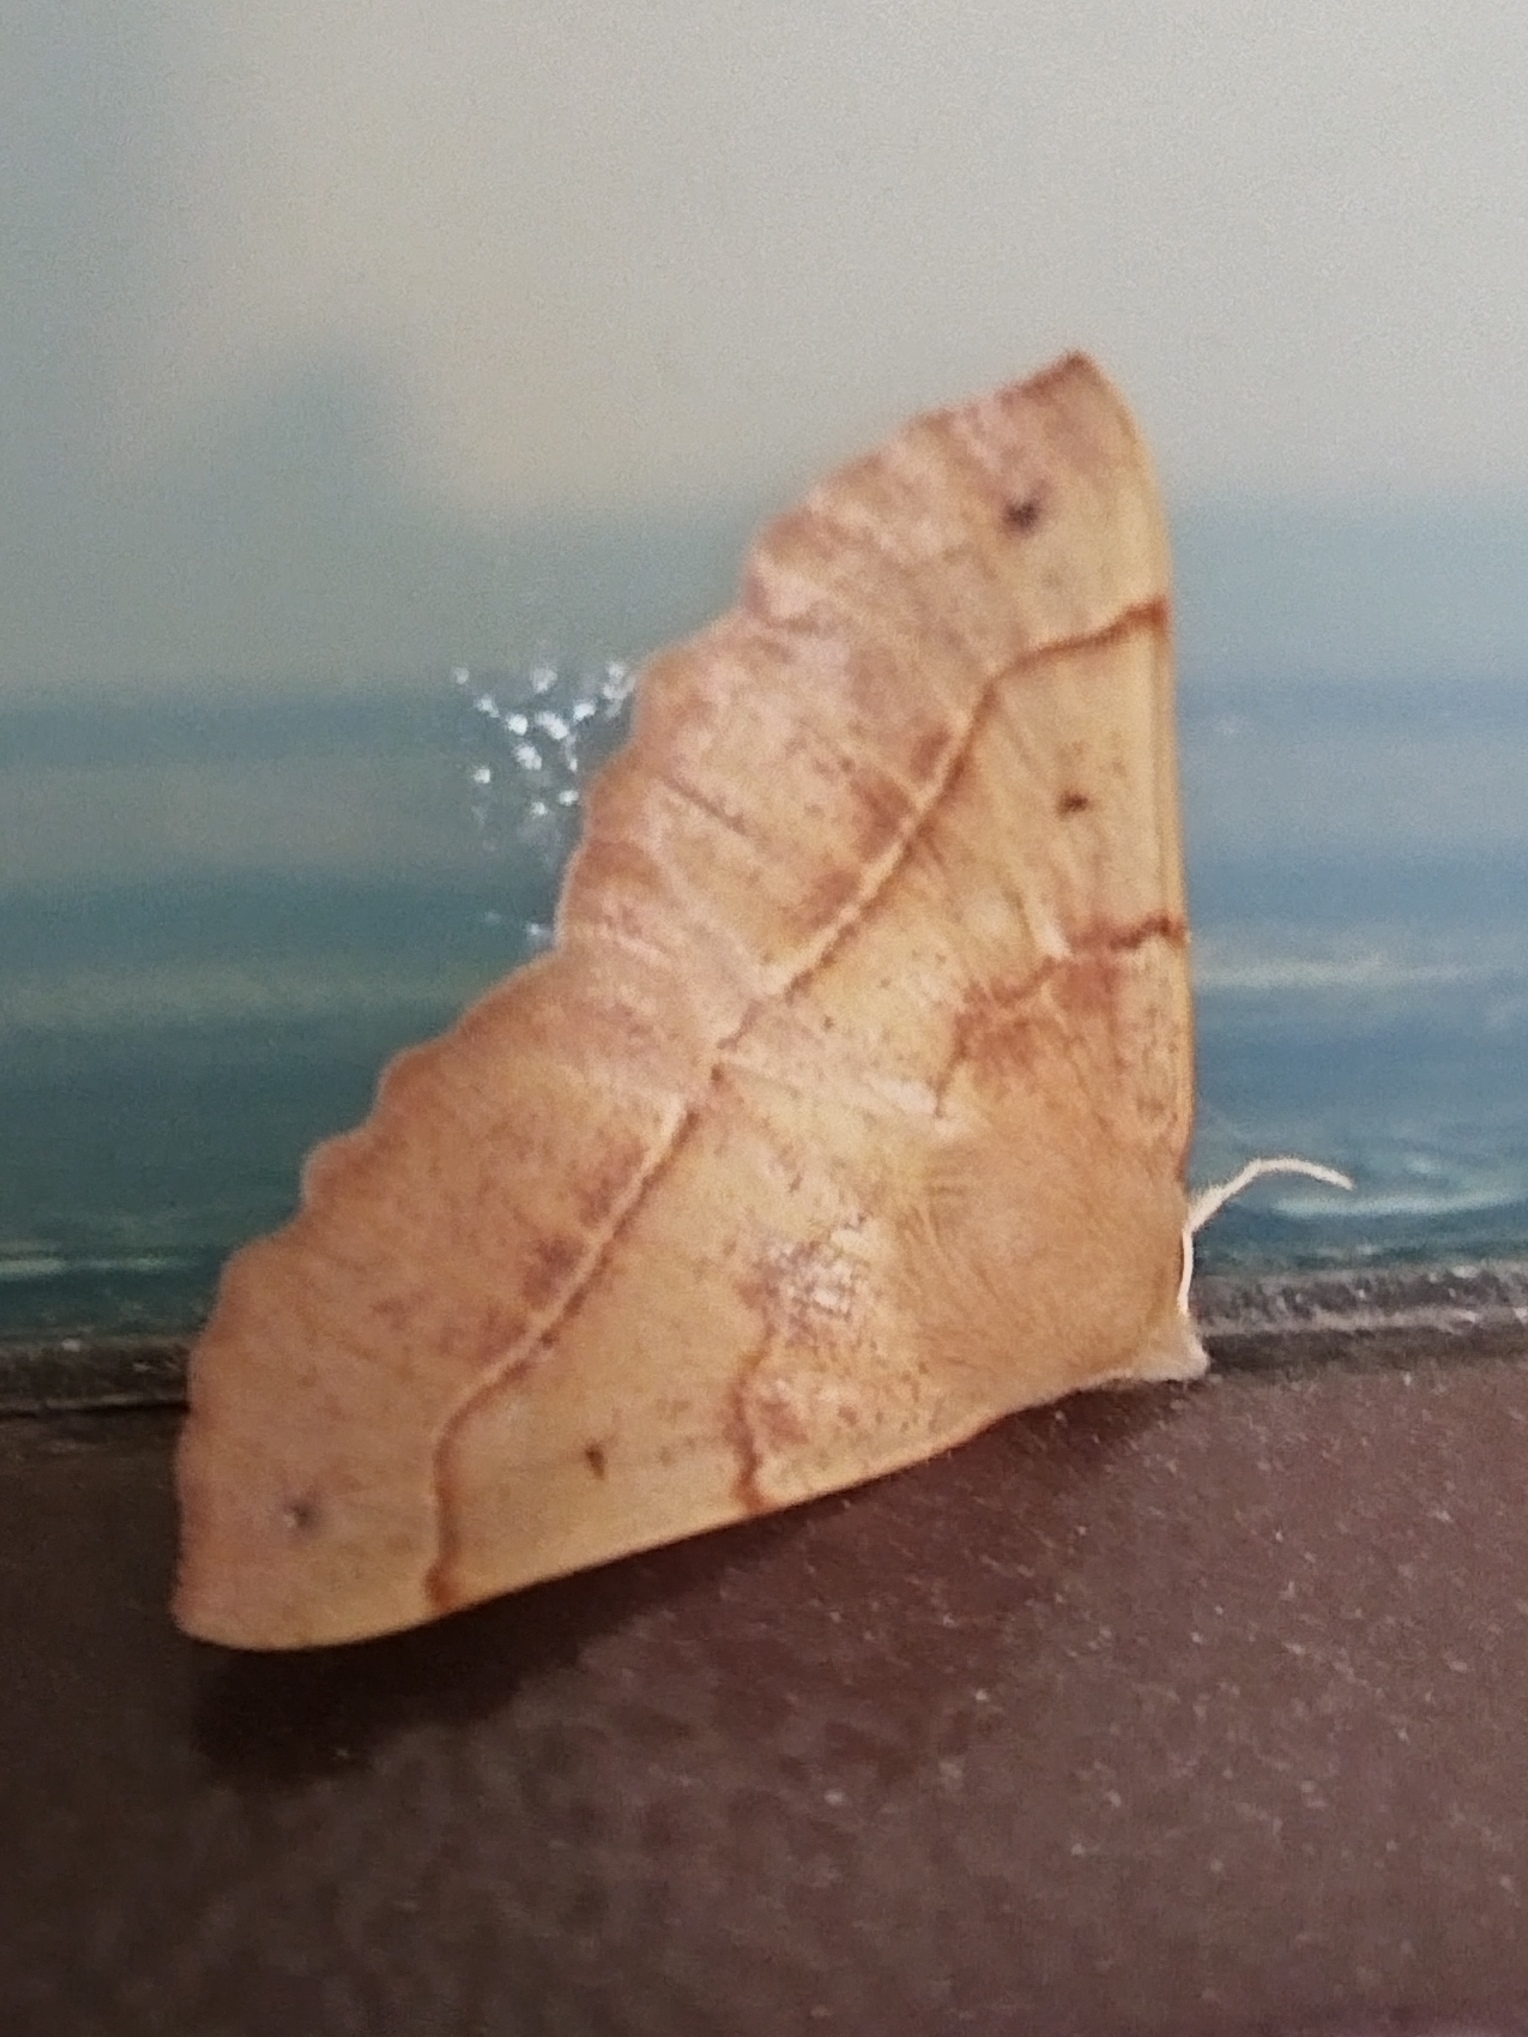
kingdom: Animalia
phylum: Arthropoda
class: Insecta
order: Lepidoptera
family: Geometridae
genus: Colotois
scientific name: Colotois pennaria
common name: Feathered thorn
